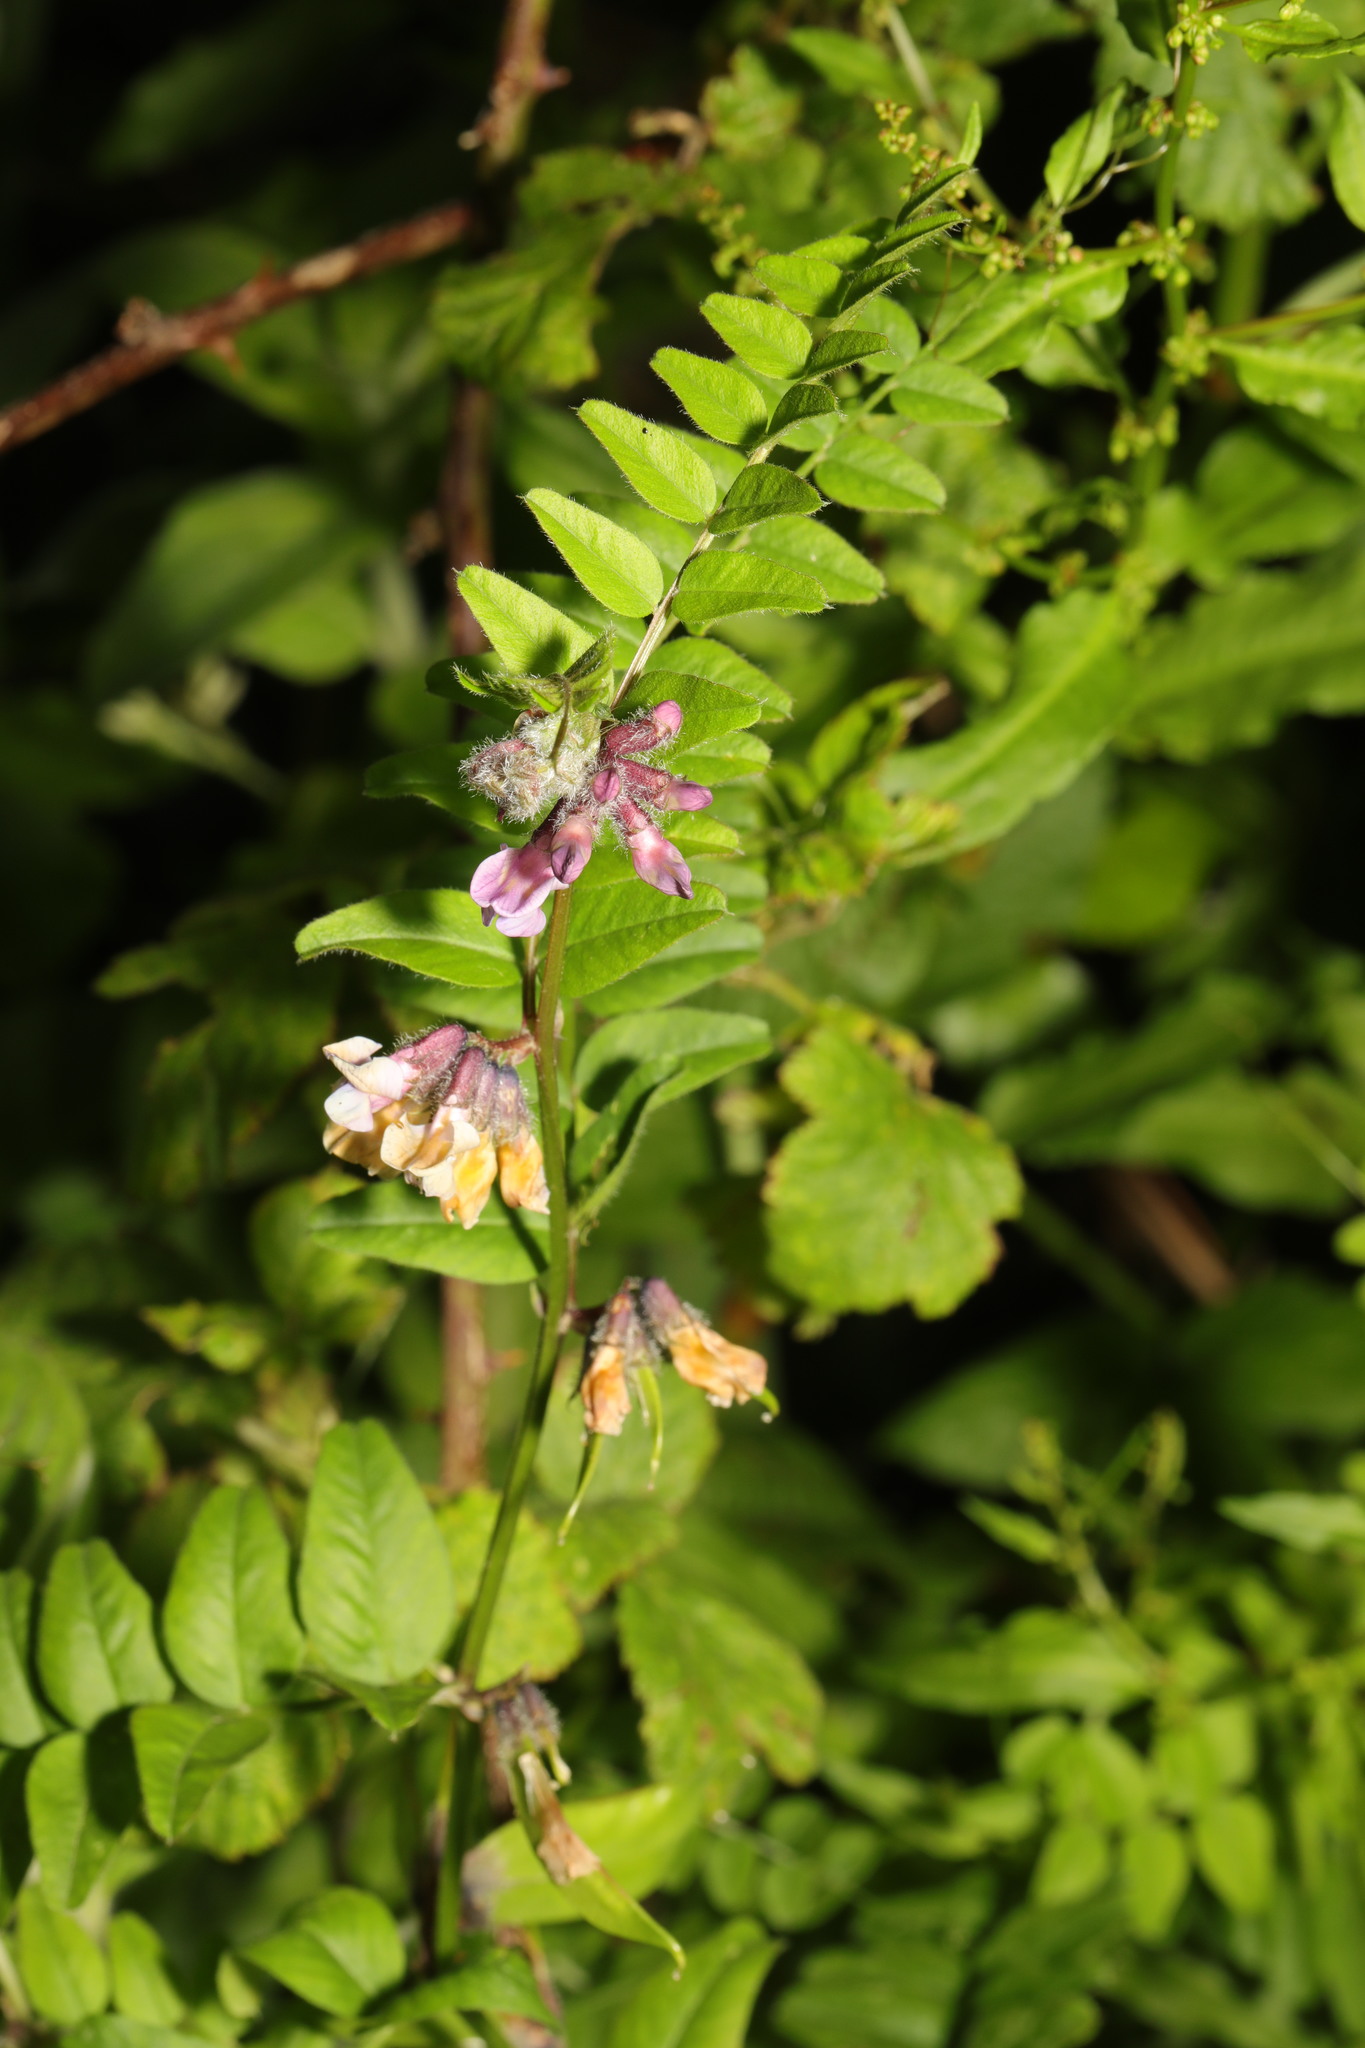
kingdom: Plantae
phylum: Tracheophyta
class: Magnoliopsida
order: Fabales
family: Fabaceae
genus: Vicia
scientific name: Vicia sepium
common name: Bush vetch
